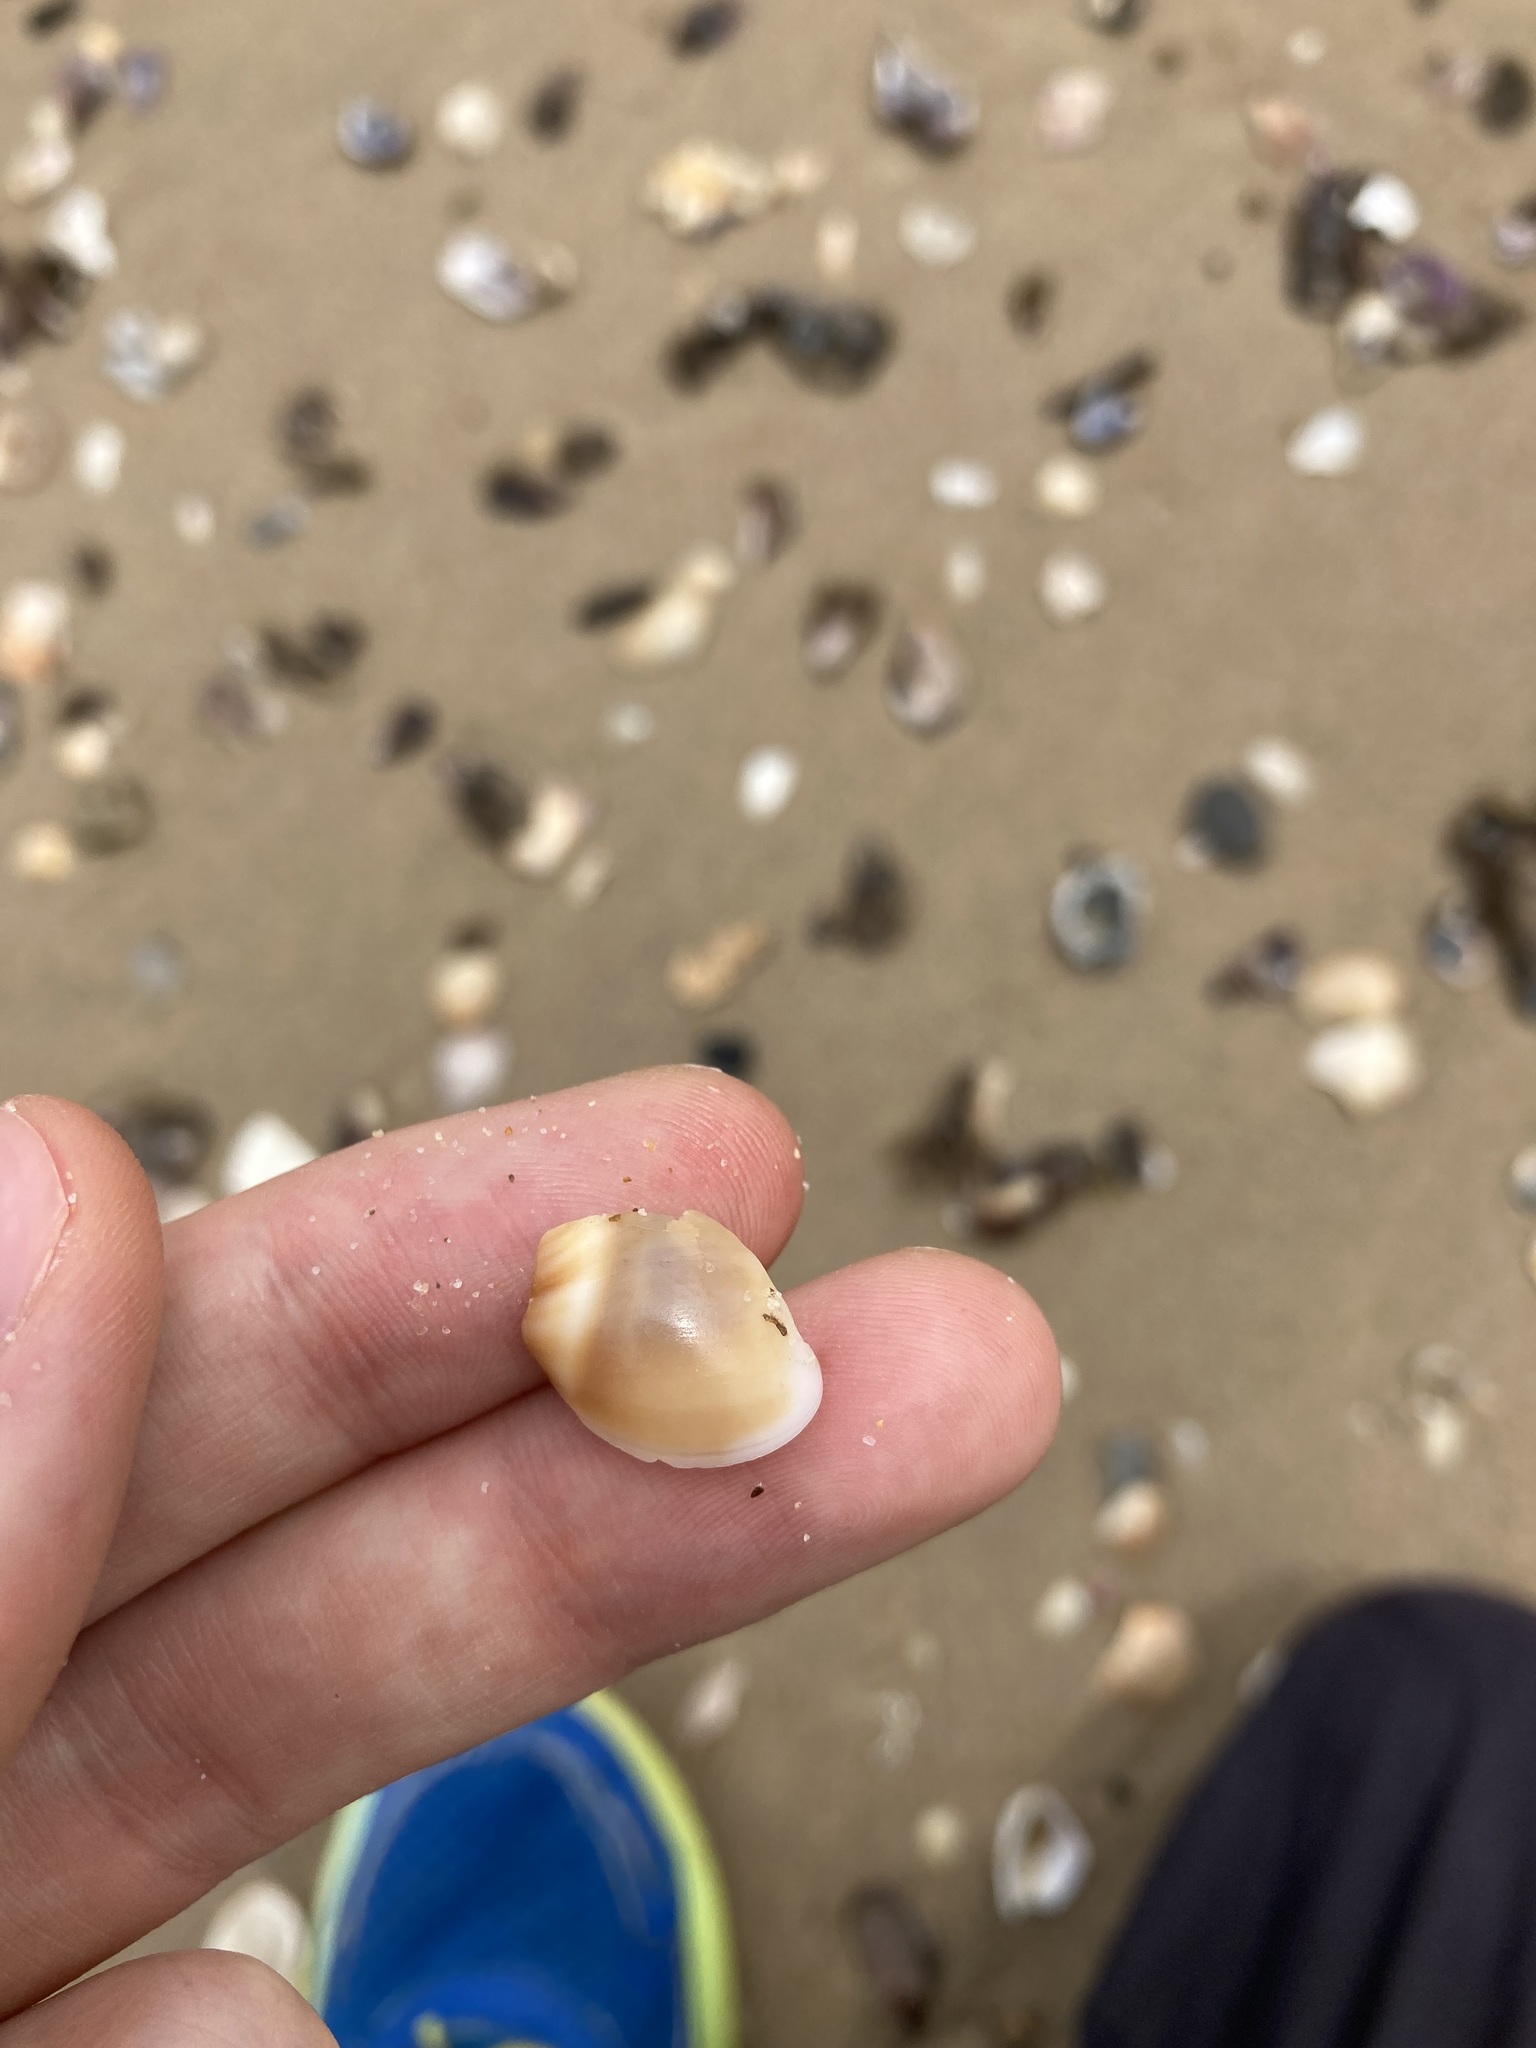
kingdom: Animalia
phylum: Mollusca
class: Gastropoda
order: Littorinimorpha
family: Naticidae
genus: Conuber
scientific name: Conuber conicum
